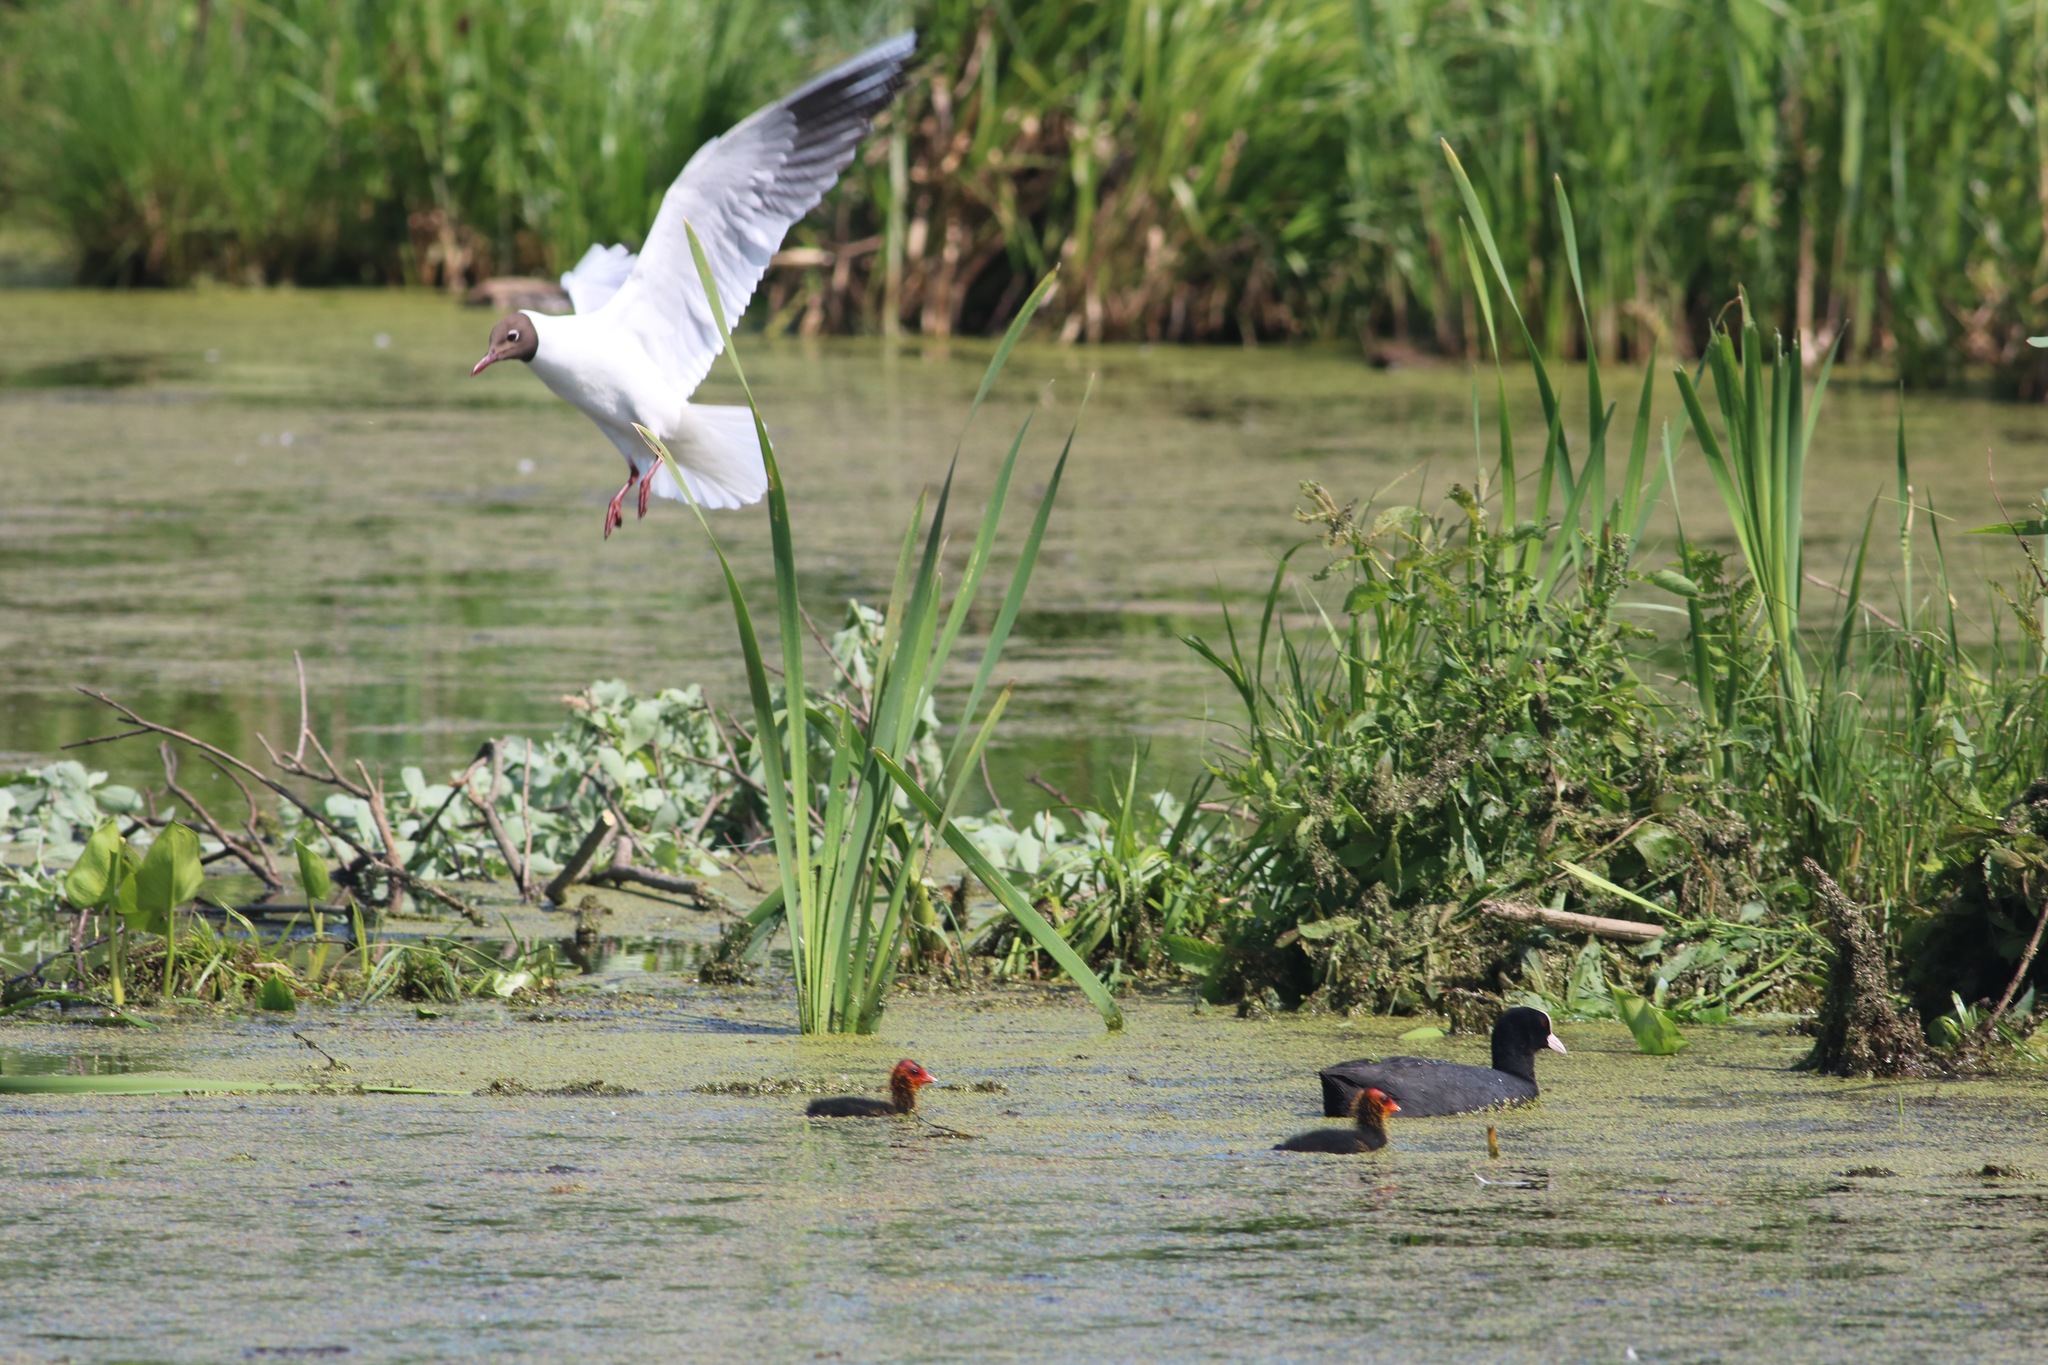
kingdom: Animalia
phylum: Chordata
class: Aves
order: Gruiformes
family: Rallidae
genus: Fulica
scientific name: Fulica atra
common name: Eurasian coot
